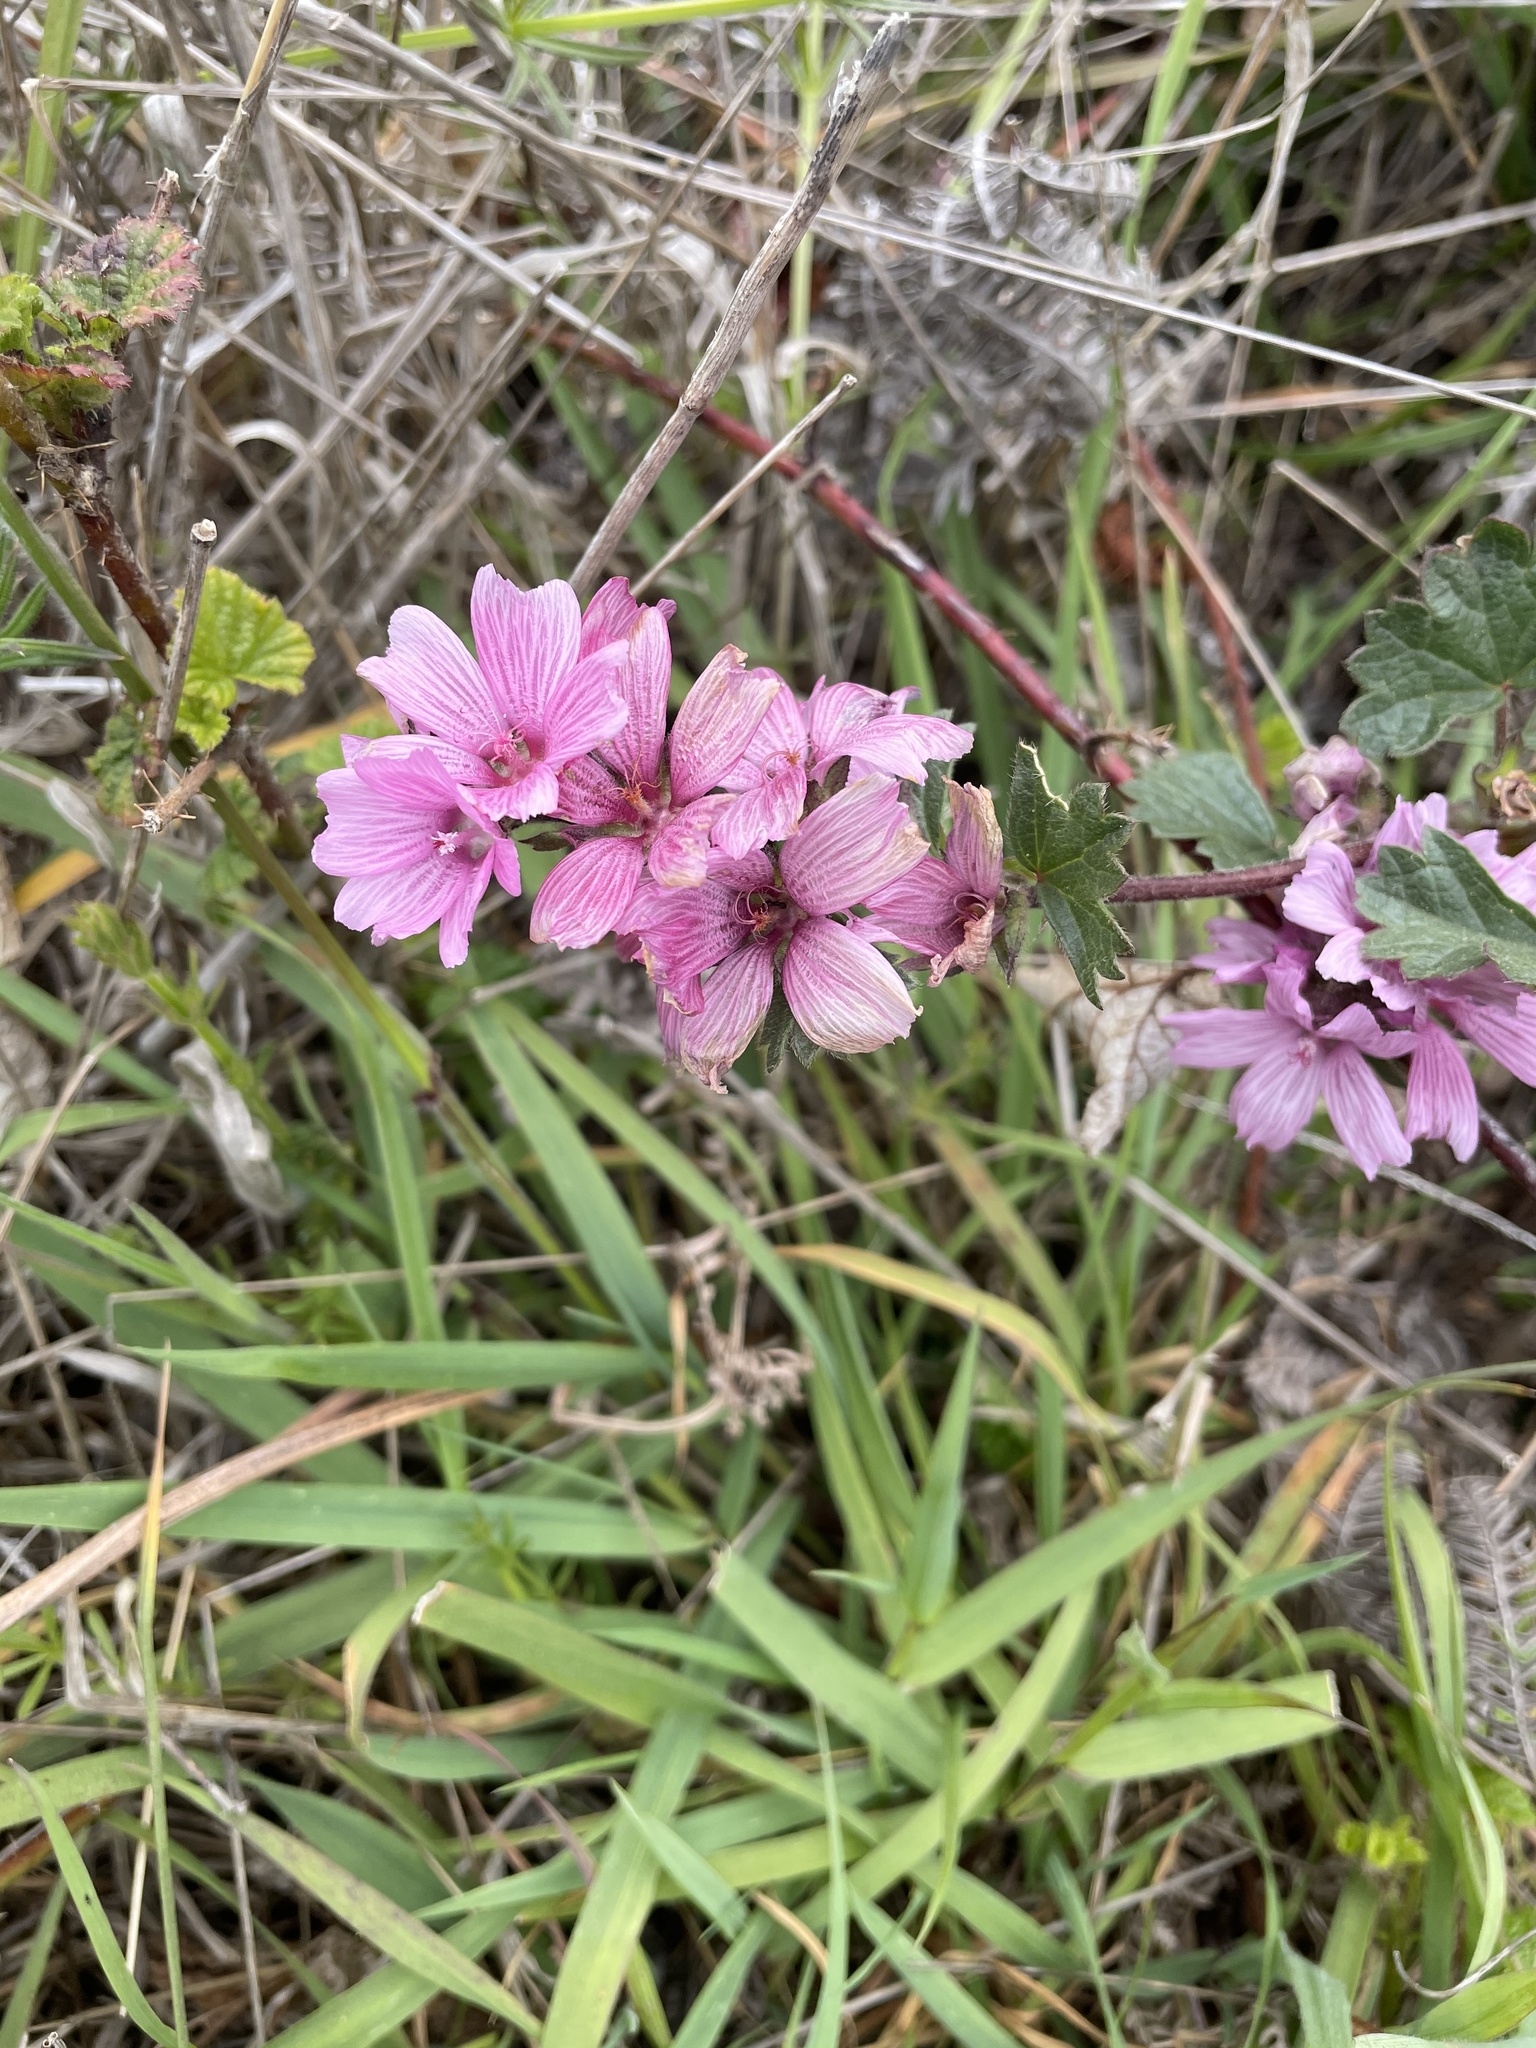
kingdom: Plantae
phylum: Tracheophyta
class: Magnoliopsida
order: Malvales
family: Malvaceae
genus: Sidalcea
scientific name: Sidalcea malviflora
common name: Greek mallow
